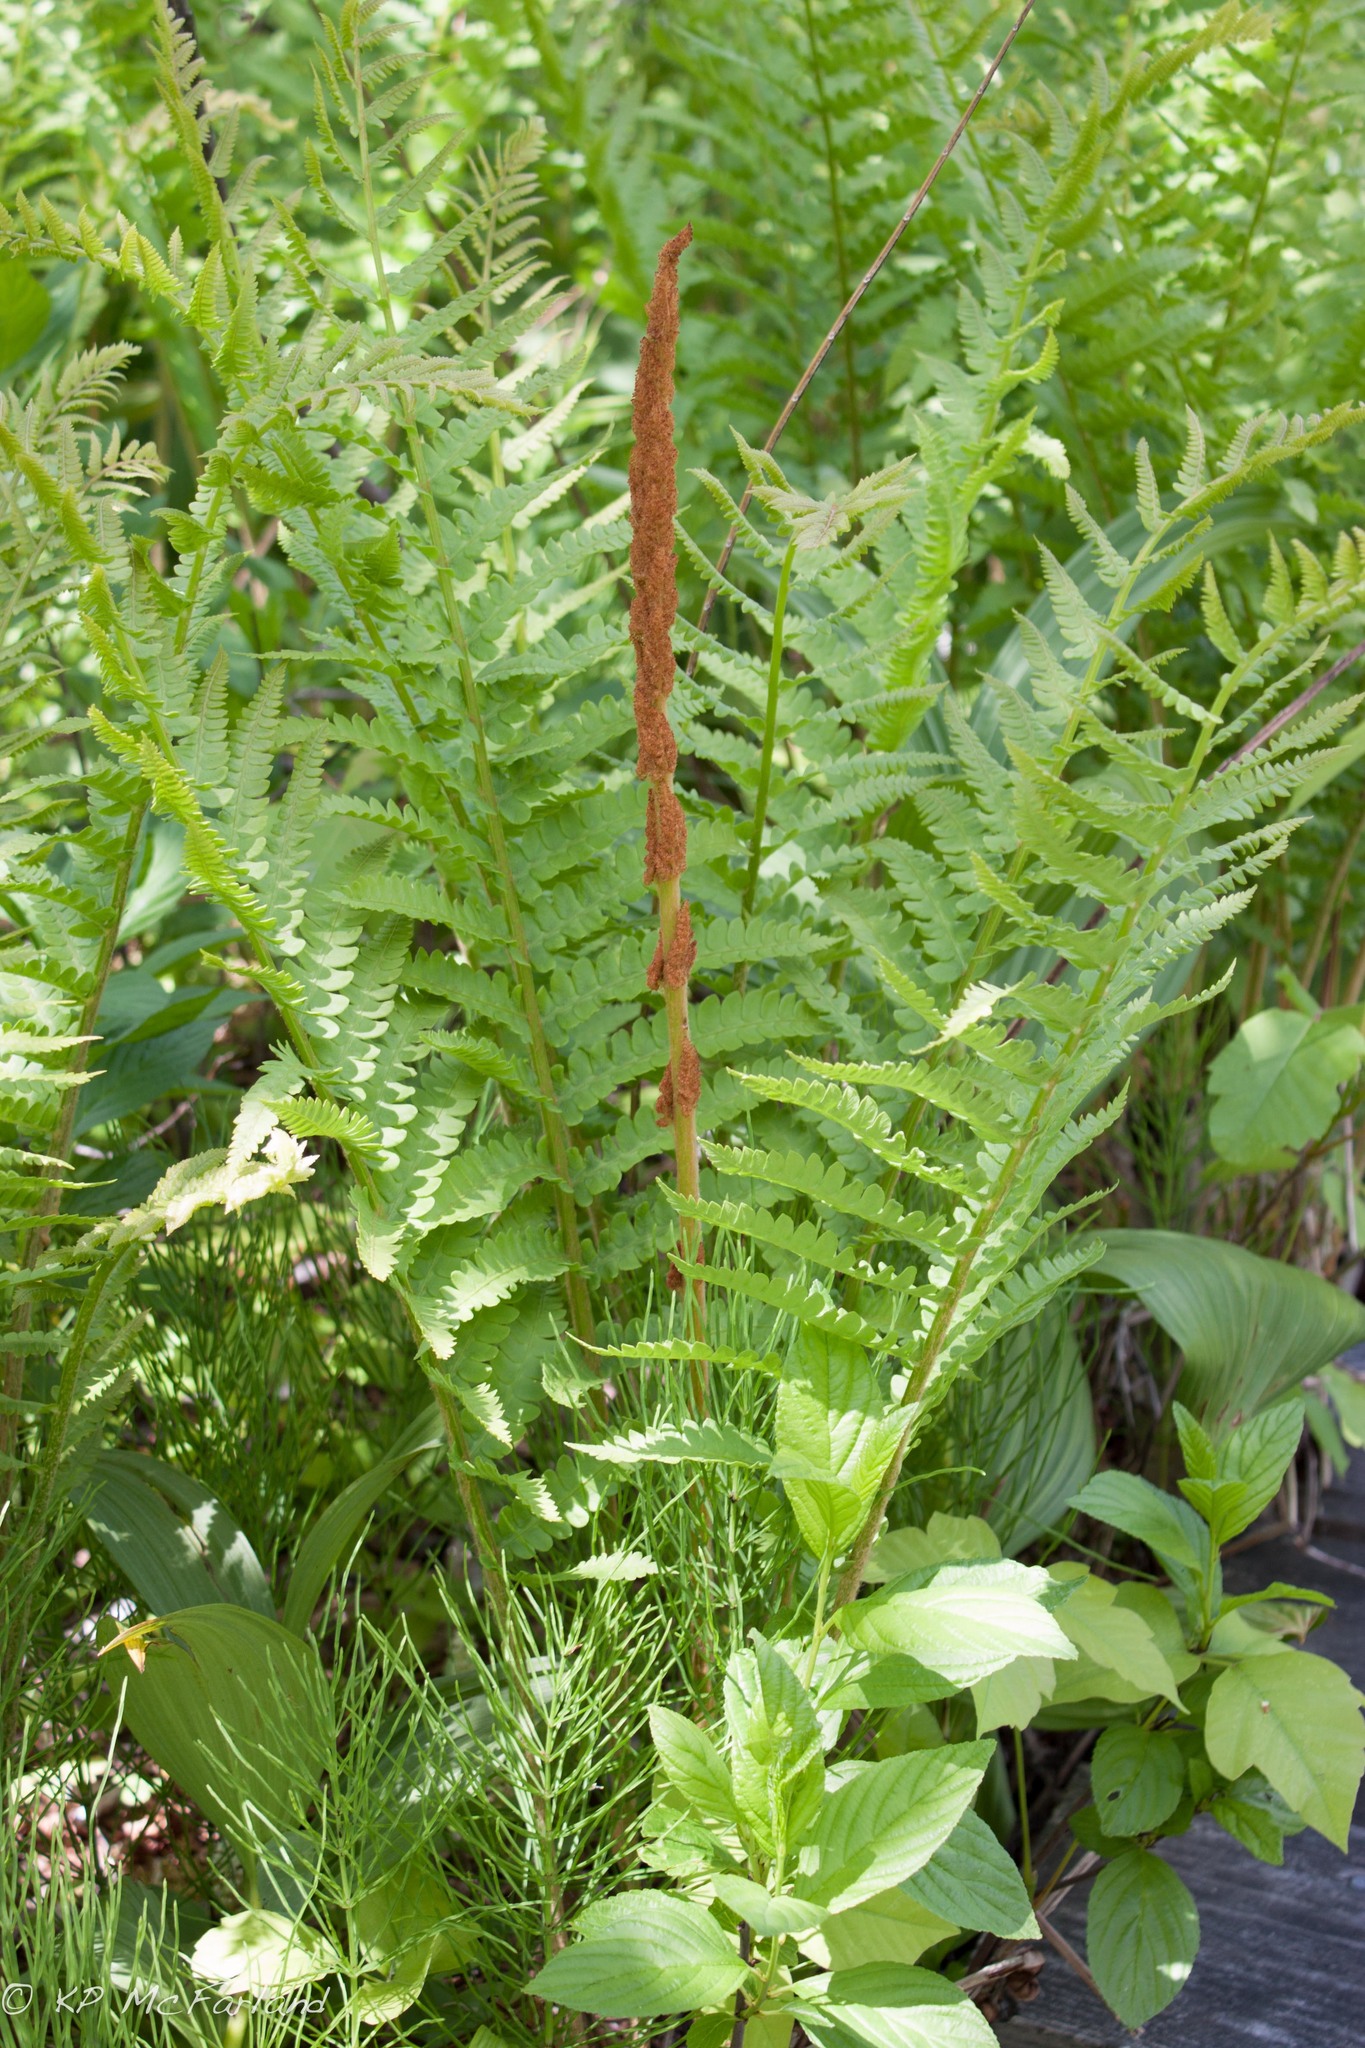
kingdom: Plantae
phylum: Tracheophyta
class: Polypodiopsida
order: Osmundales
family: Osmundaceae
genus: Osmundastrum
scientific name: Osmundastrum cinnamomeum
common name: Cinnamon fern
